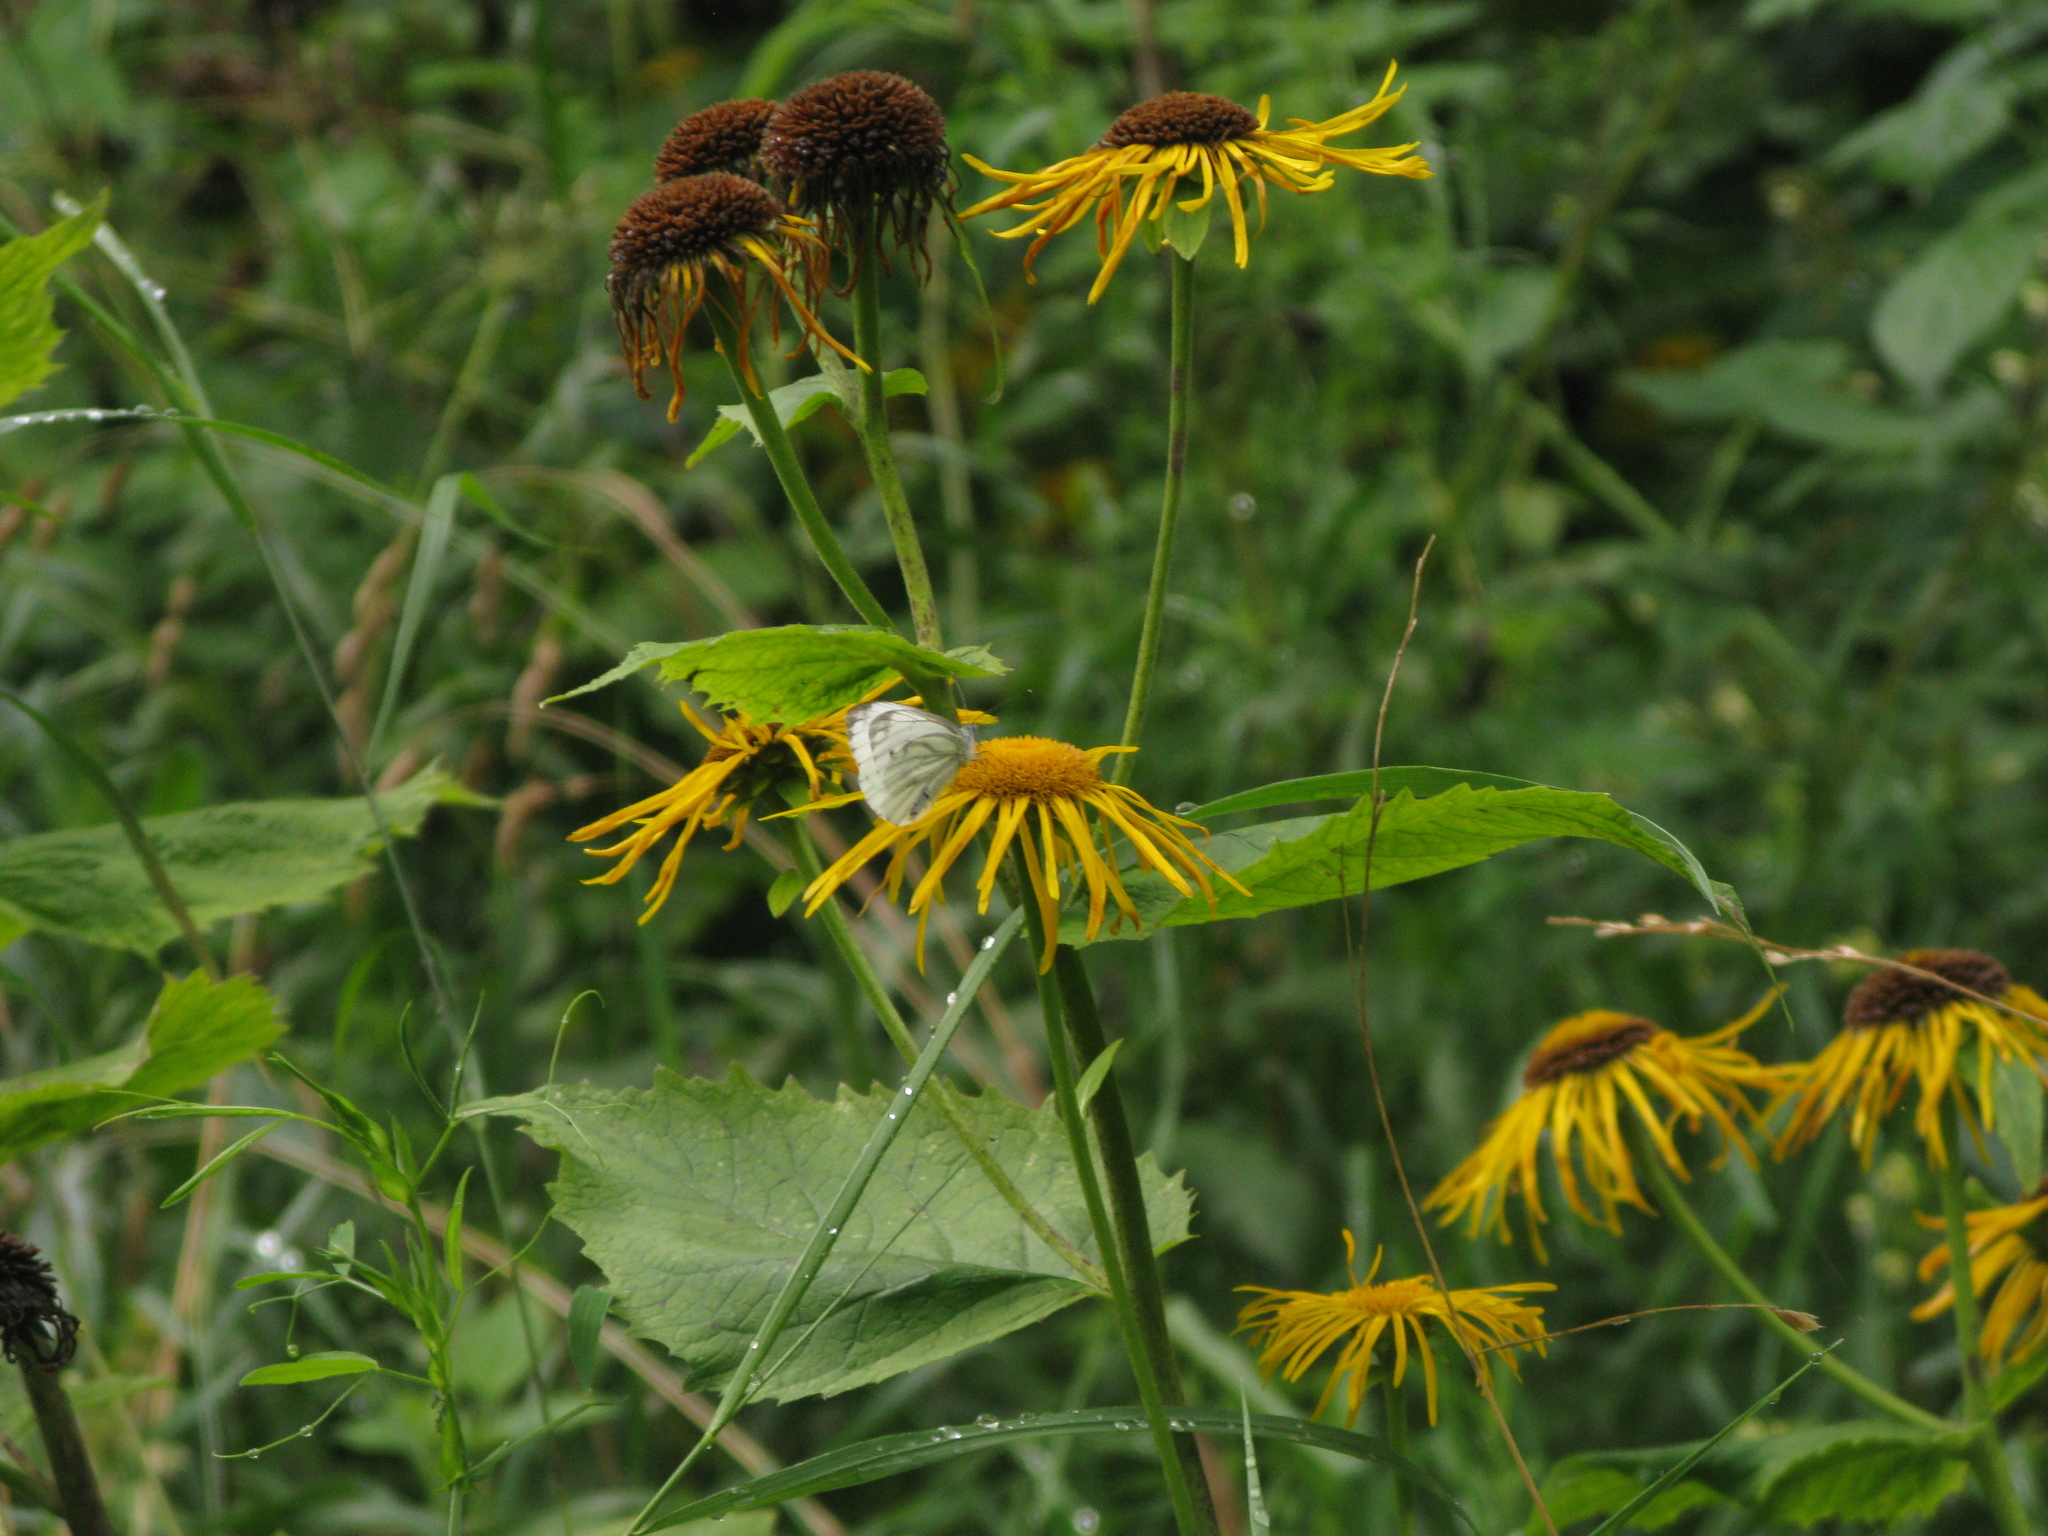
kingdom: Animalia
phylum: Arthropoda
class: Insecta
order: Lepidoptera
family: Pieridae
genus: Pieris
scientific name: Pieris napi
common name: Green-veined white
